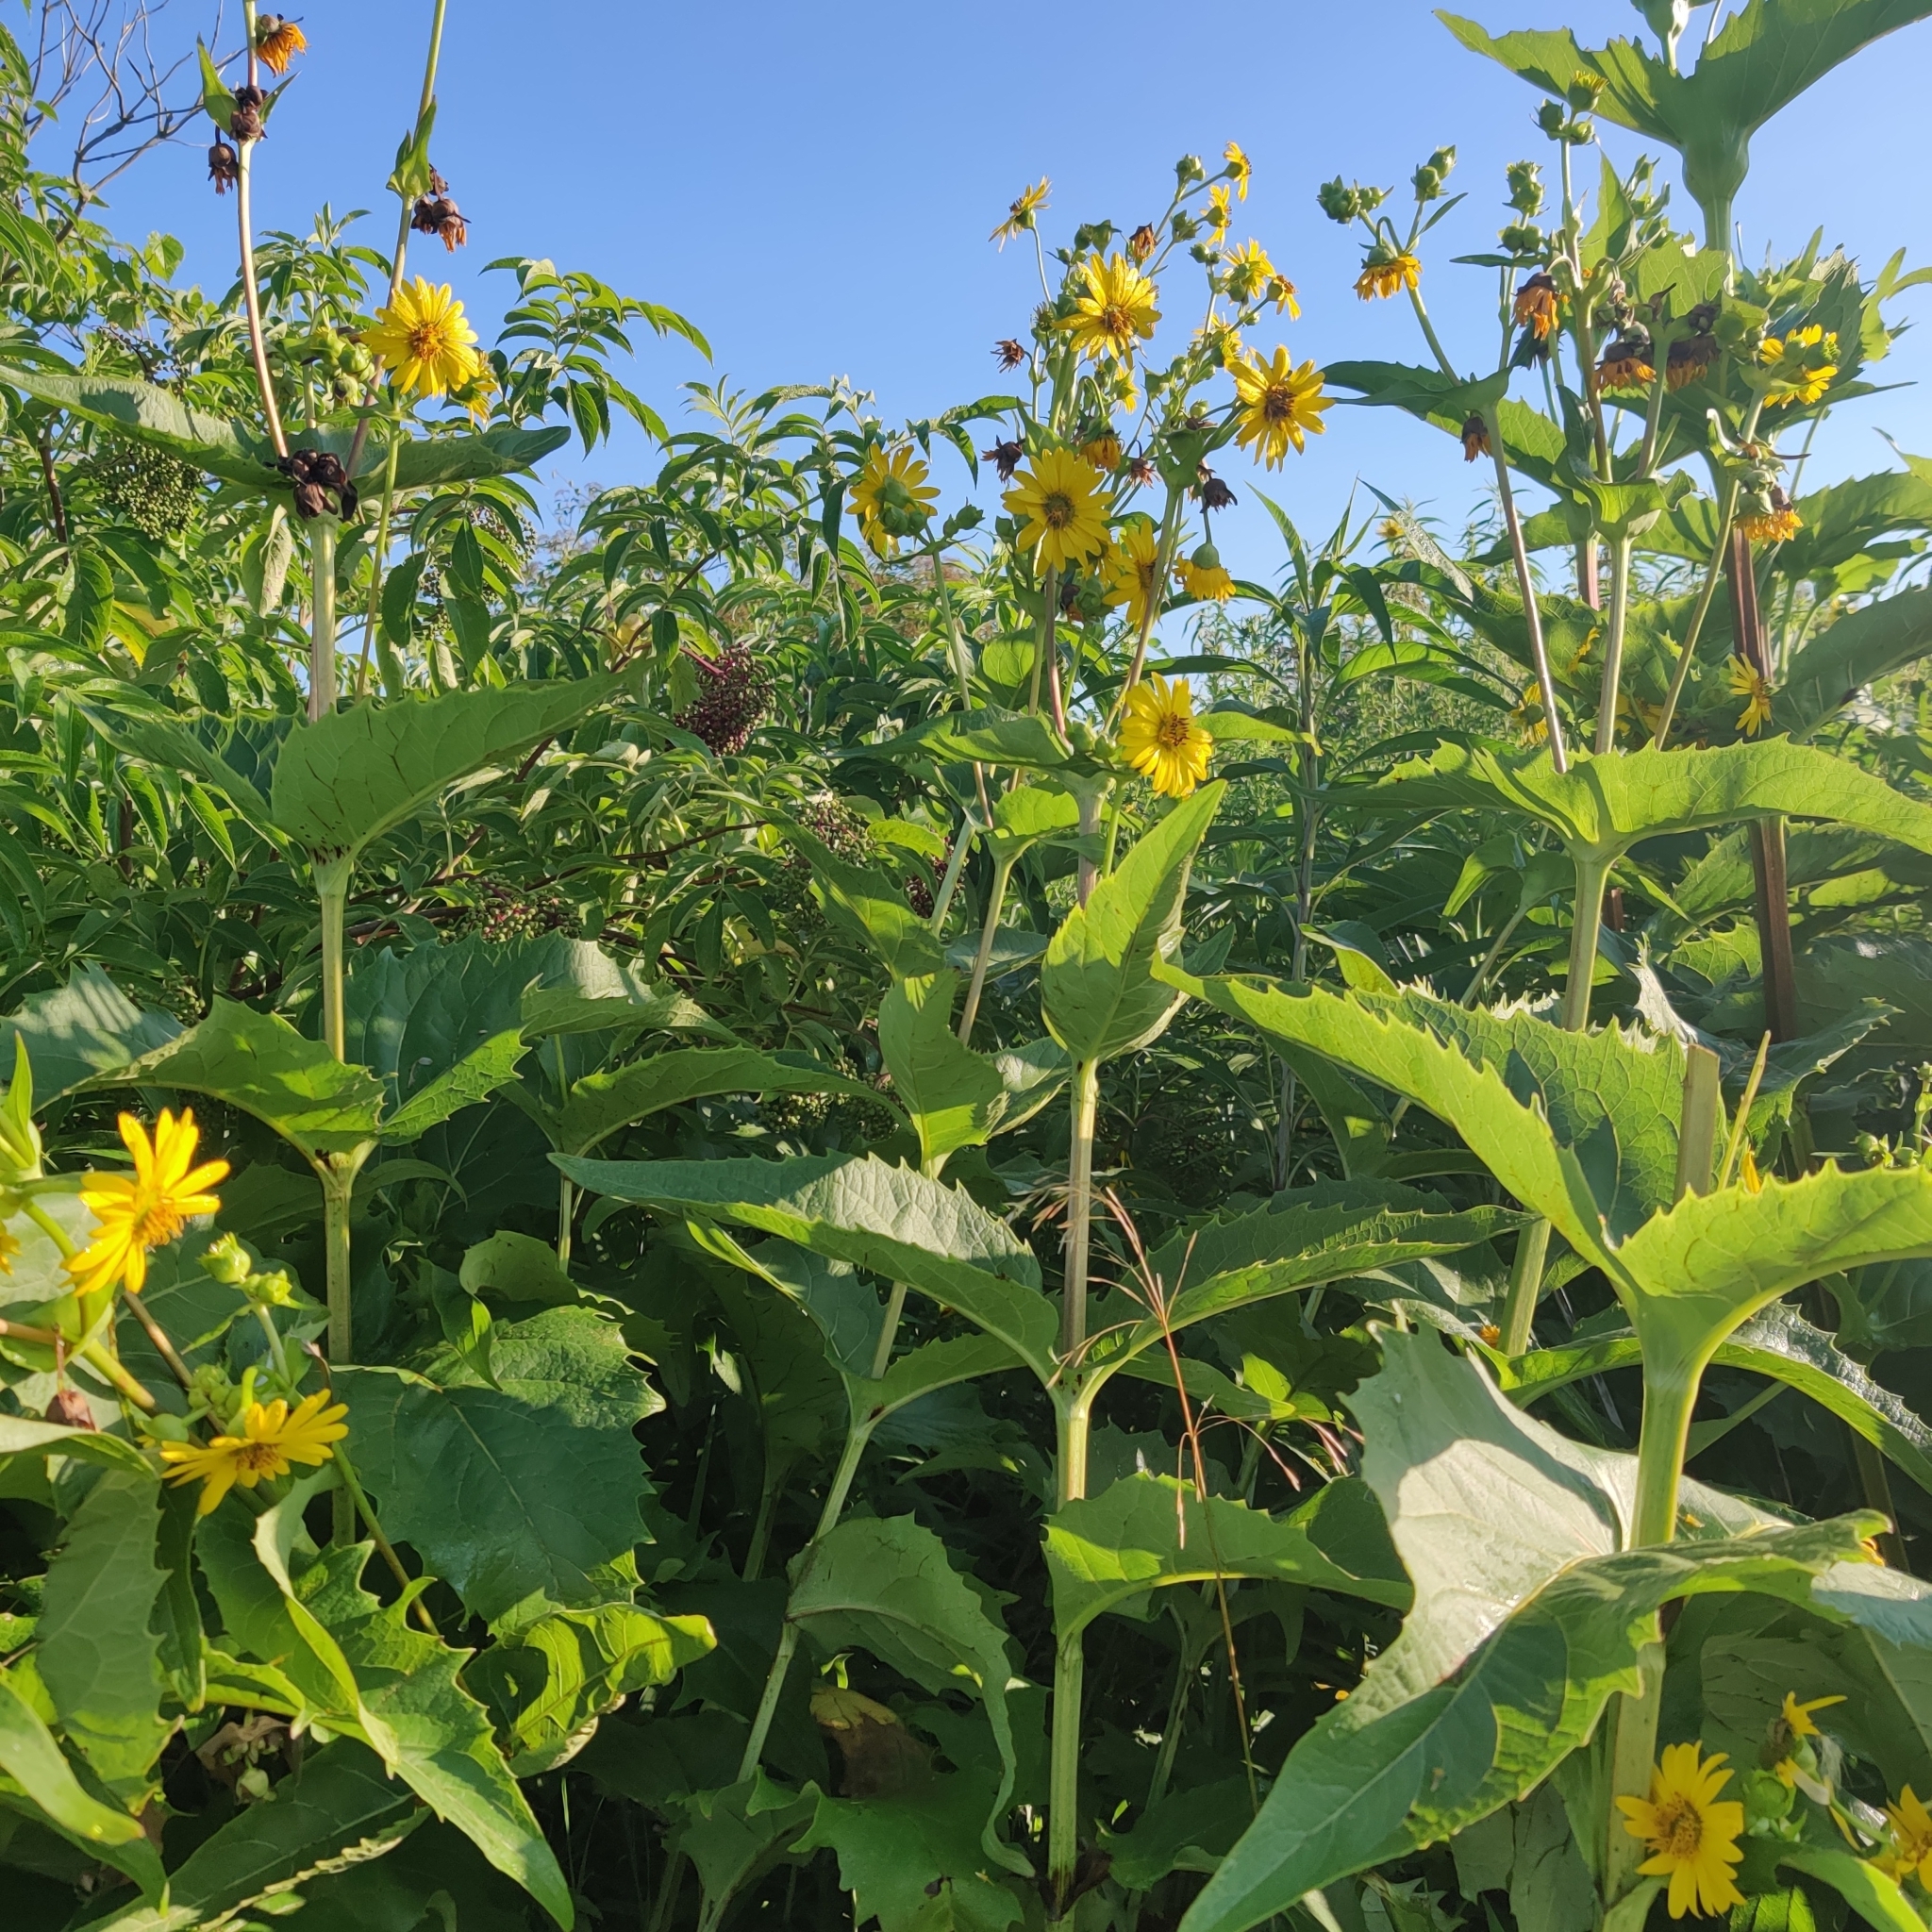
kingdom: Plantae
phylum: Tracheophyta
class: Magnoliopsida
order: Asterales
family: Asteraceae
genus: Silphium
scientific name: Silphium perfoliatum
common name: Cup-plant
